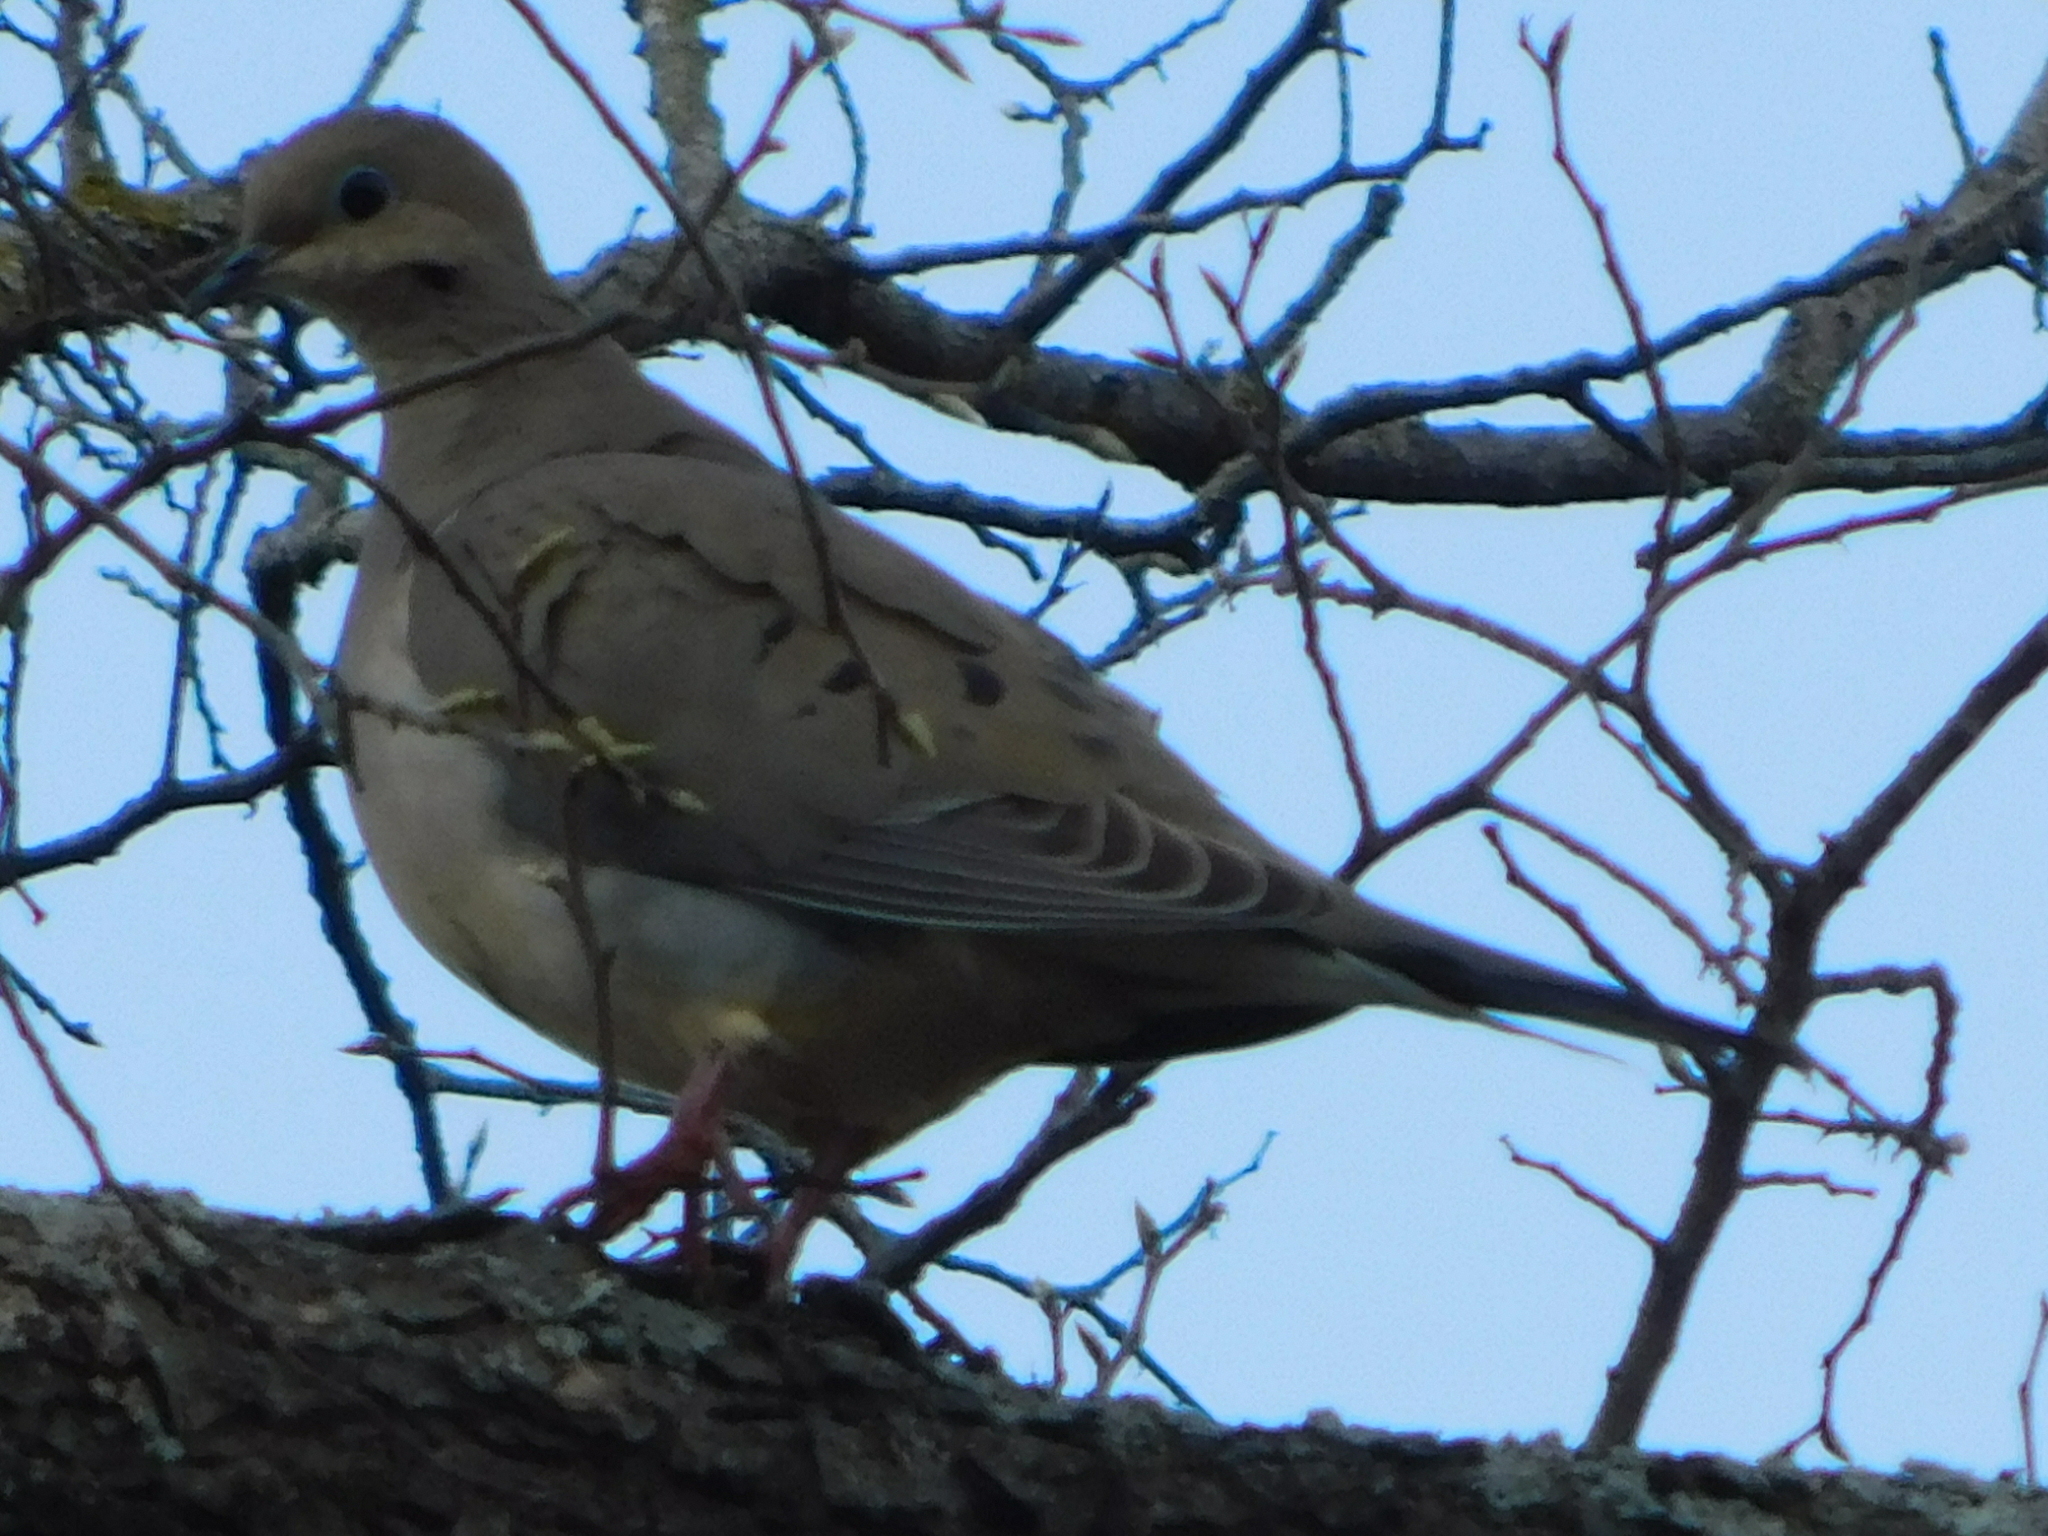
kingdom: Animalia
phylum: Chordata
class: Aves
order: Columbiformes
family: Columbidae
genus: Zenaida
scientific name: Zenaida macroura
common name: Mourning dove
